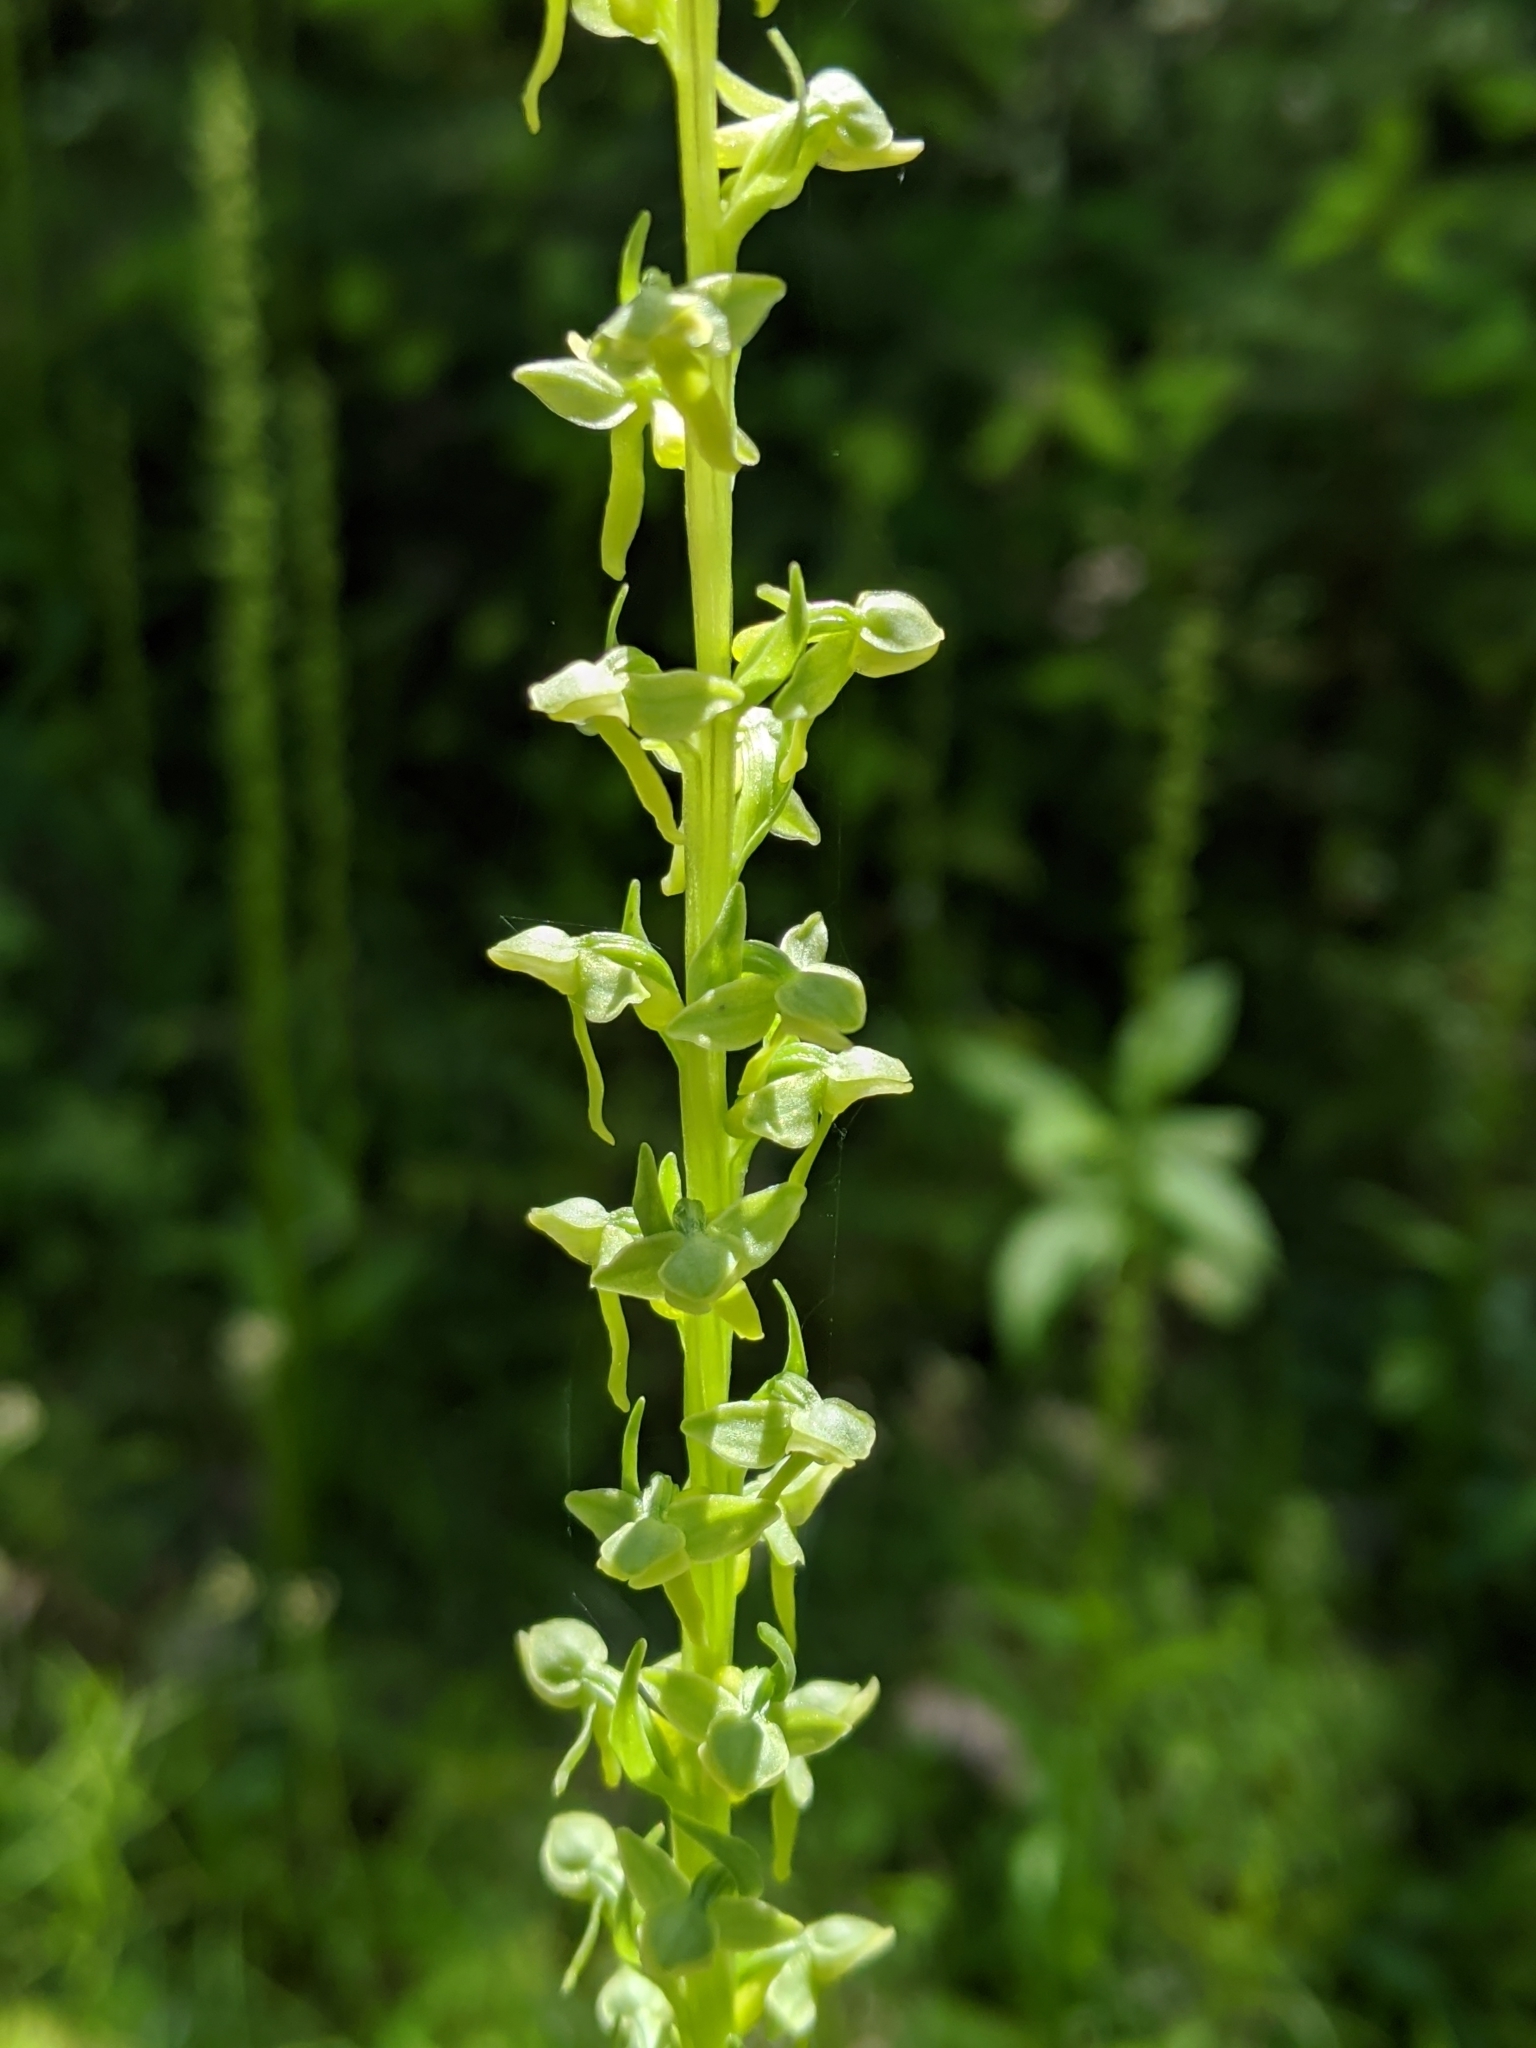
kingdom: Plantae
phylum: Tracheophyta
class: Liliopsida
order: Asparagales
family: Orchidaceae
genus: Platanthera
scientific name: Platanthera stricta
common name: Slender bog orchid
